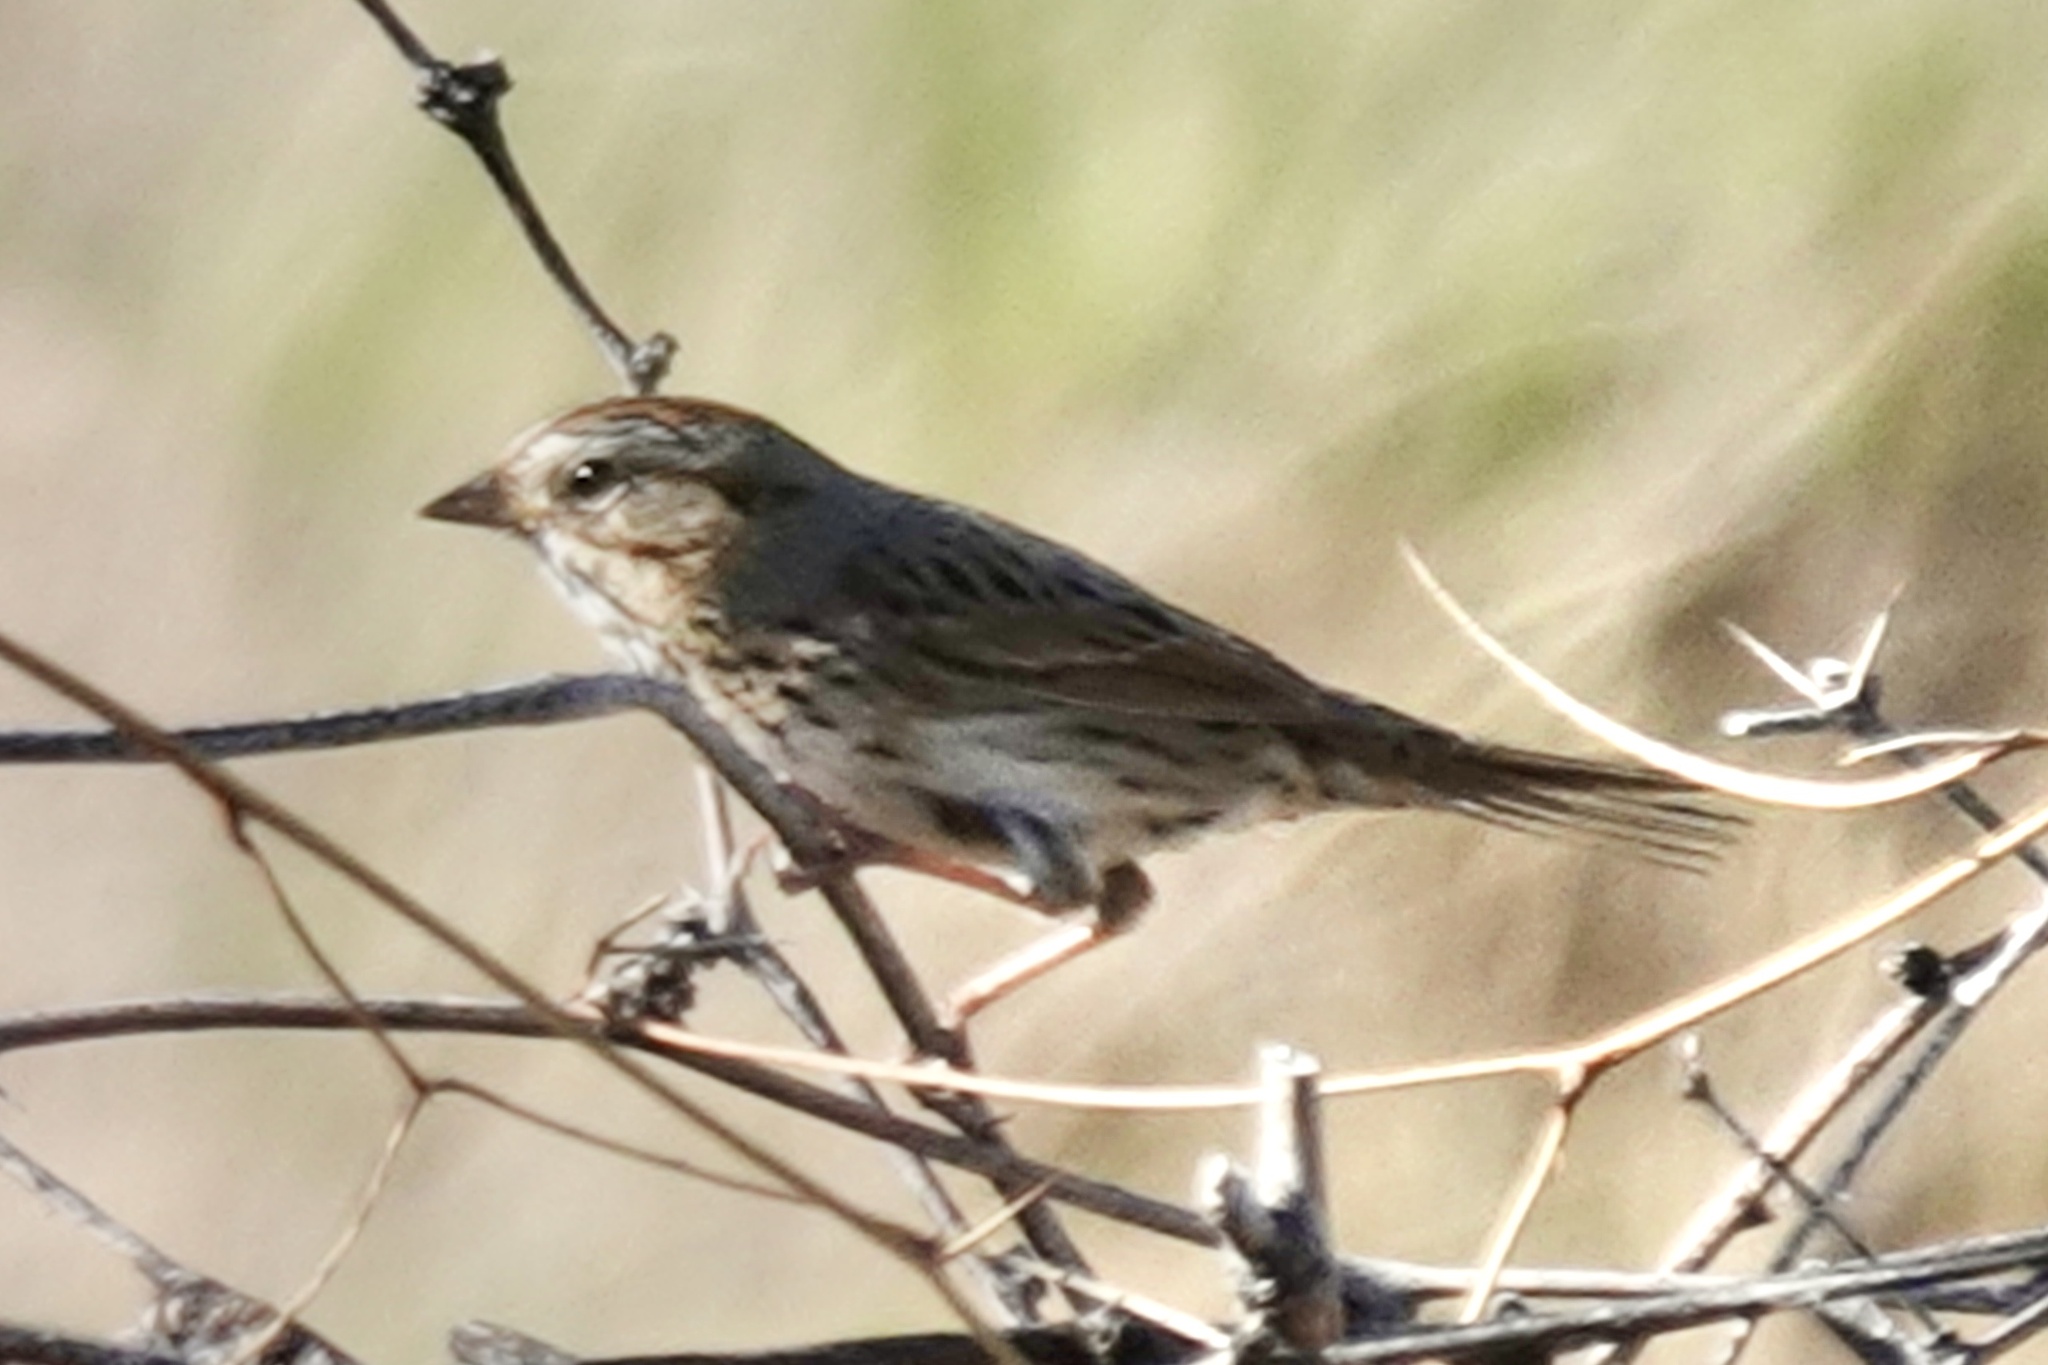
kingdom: Animalia
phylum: Chordata
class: Aves
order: Passeriformes
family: Passerellidae
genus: Melospiza
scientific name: Melospiza lincolnii
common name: Lincoln's sparrow
